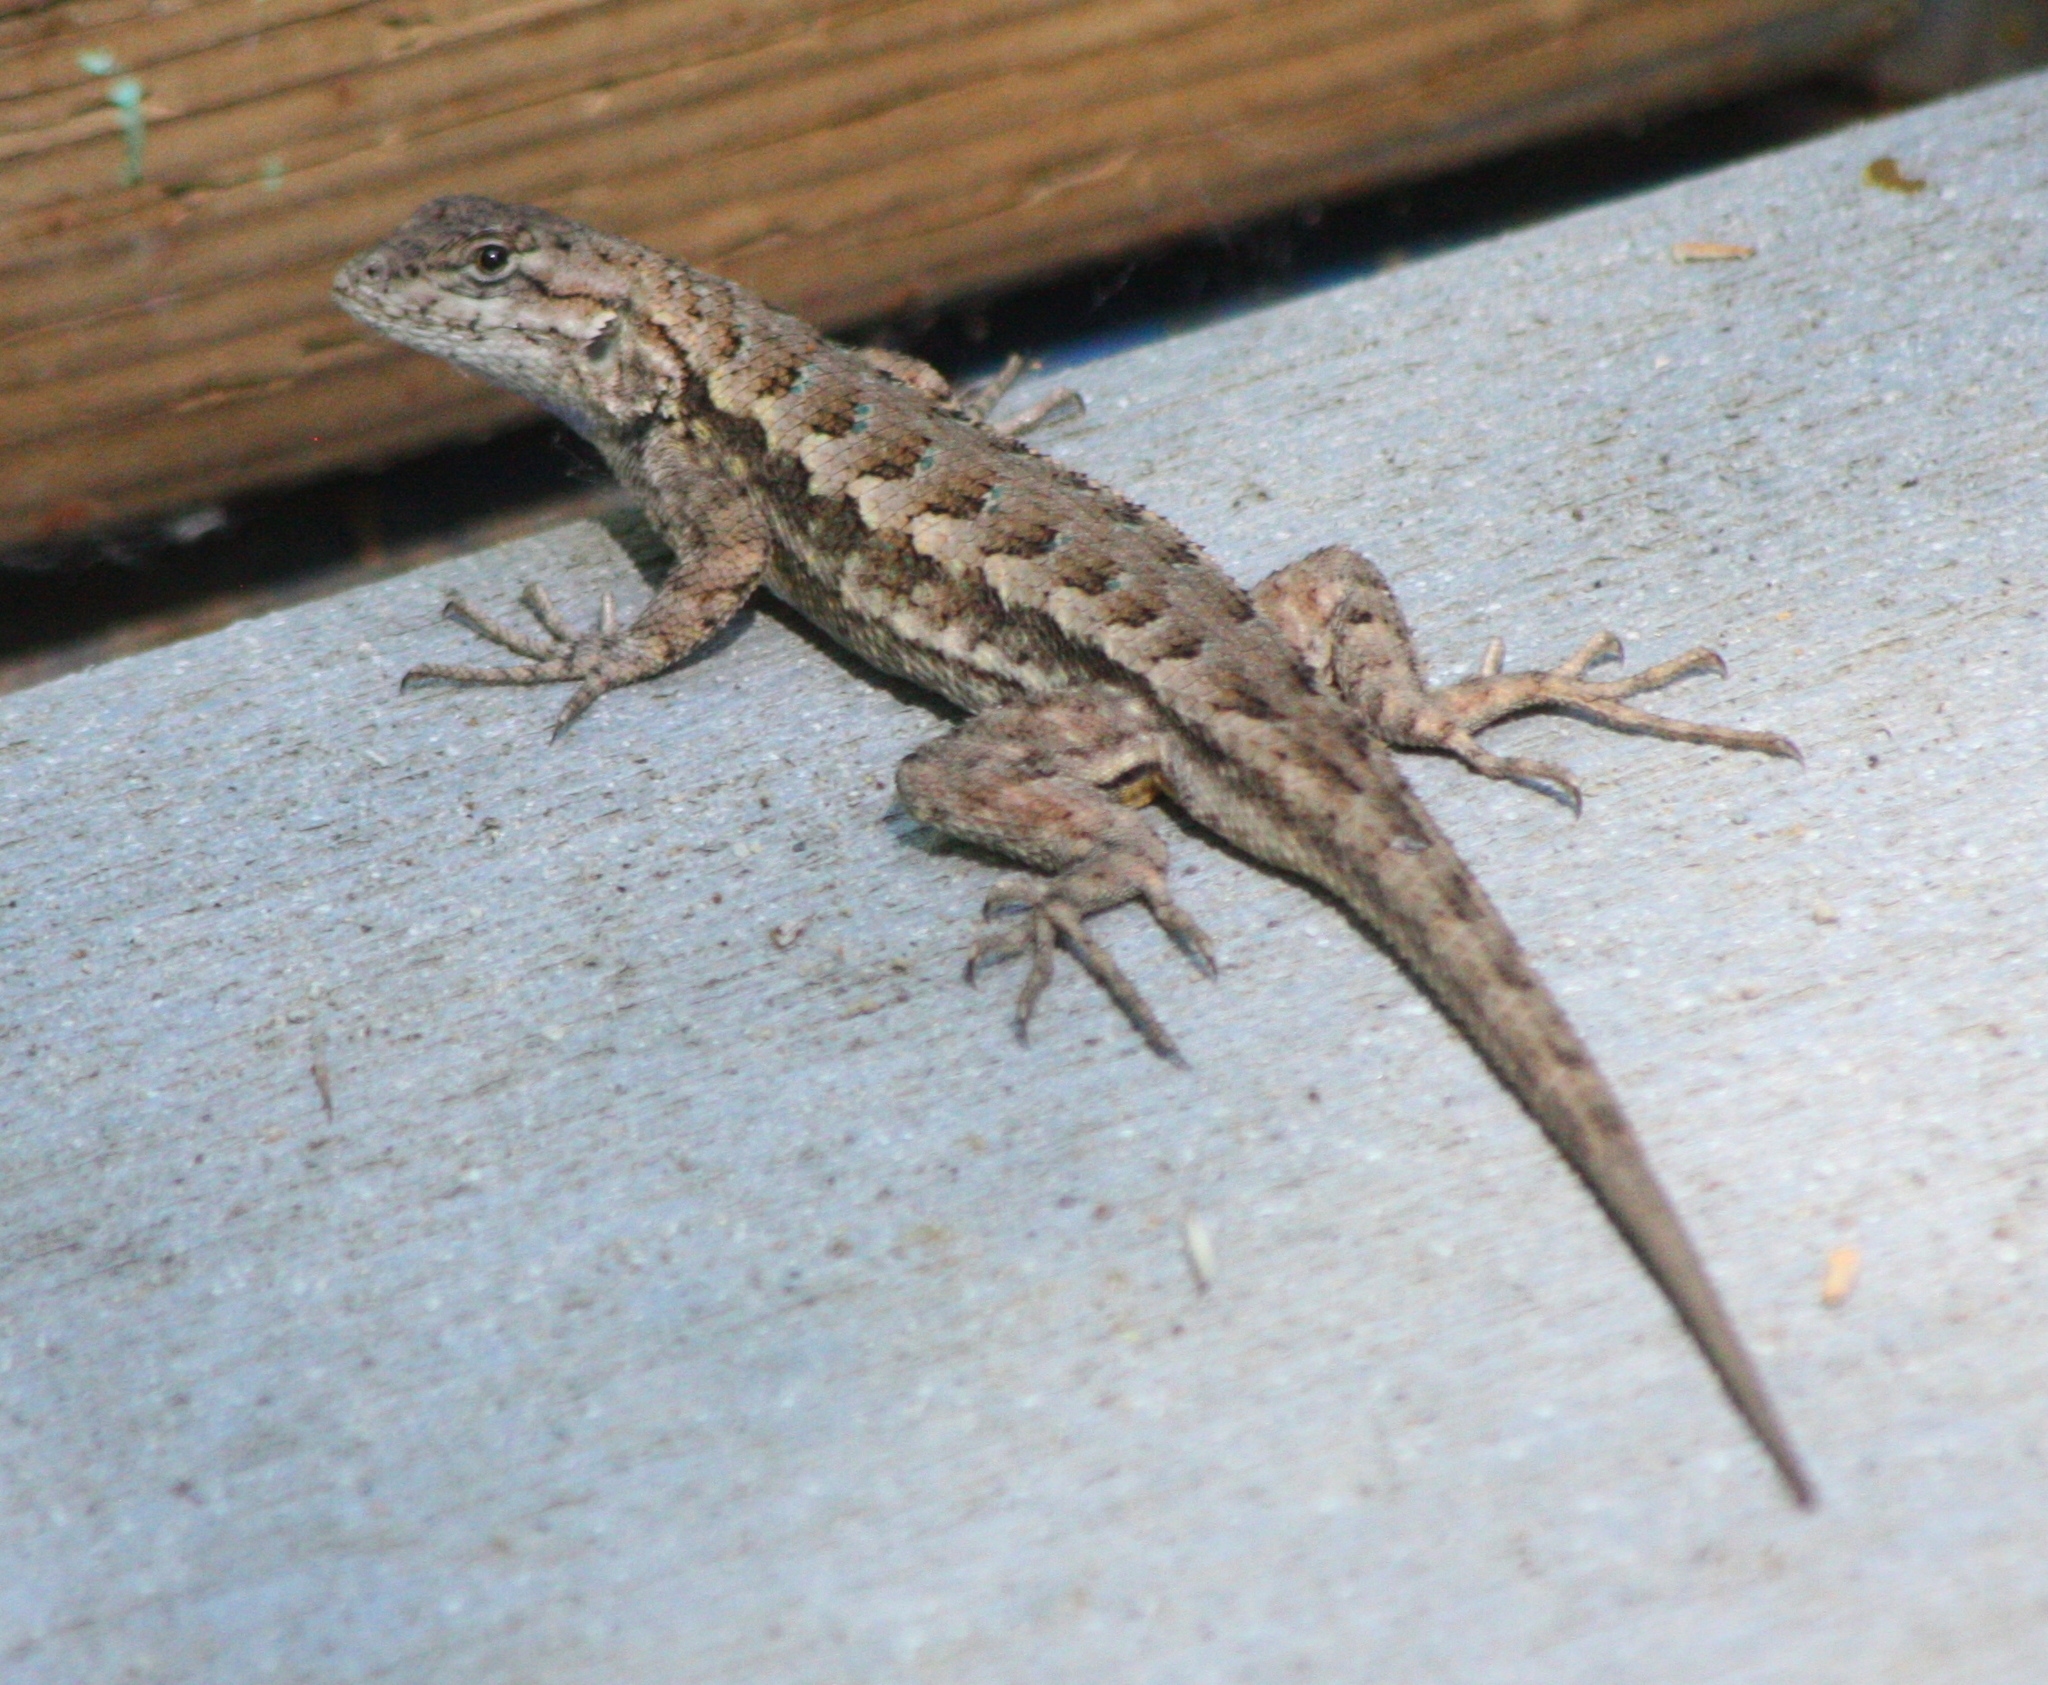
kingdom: Animalia
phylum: Chordata
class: Squamata
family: Phrynosomatidae
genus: Sceloporus
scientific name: Sceloporus occidentalis
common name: Western fence lizard
